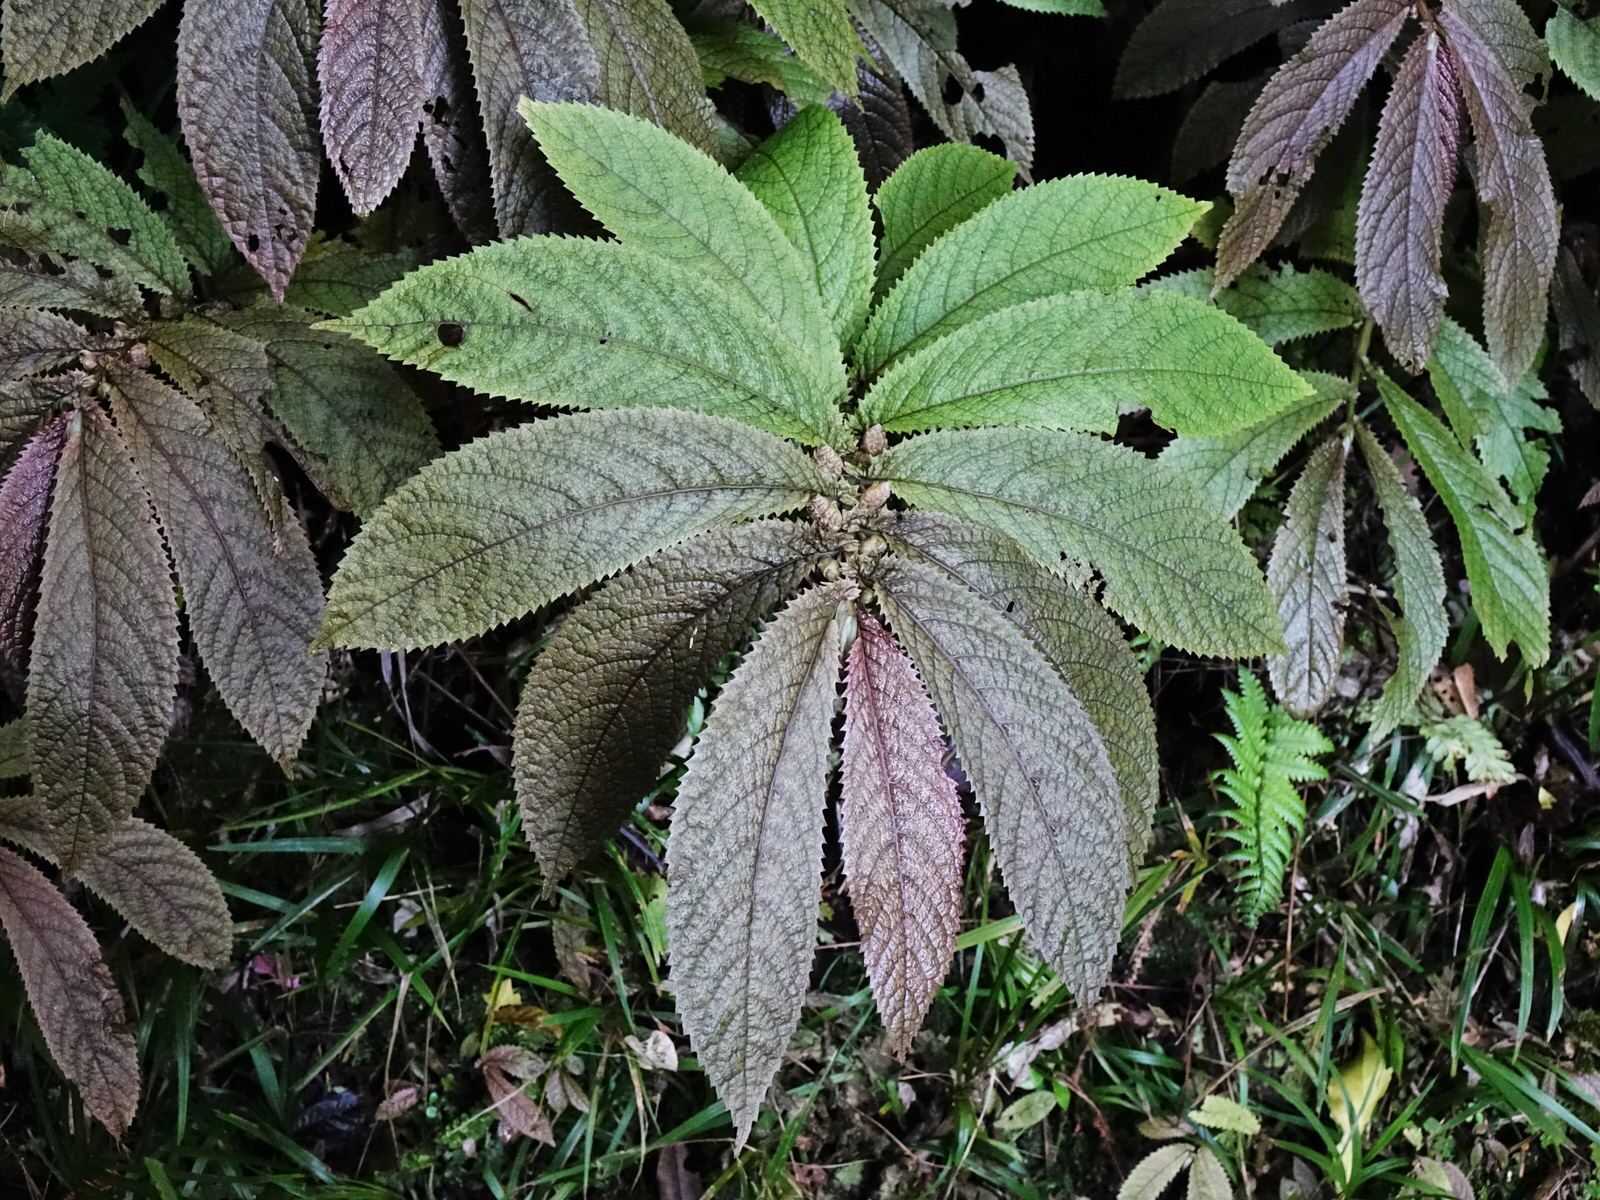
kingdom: Plantae
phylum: Tracheophyta
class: Magnoliopsida
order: Rosales
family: Urticaceae
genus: Elatostema
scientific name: Elatostema rugosum
